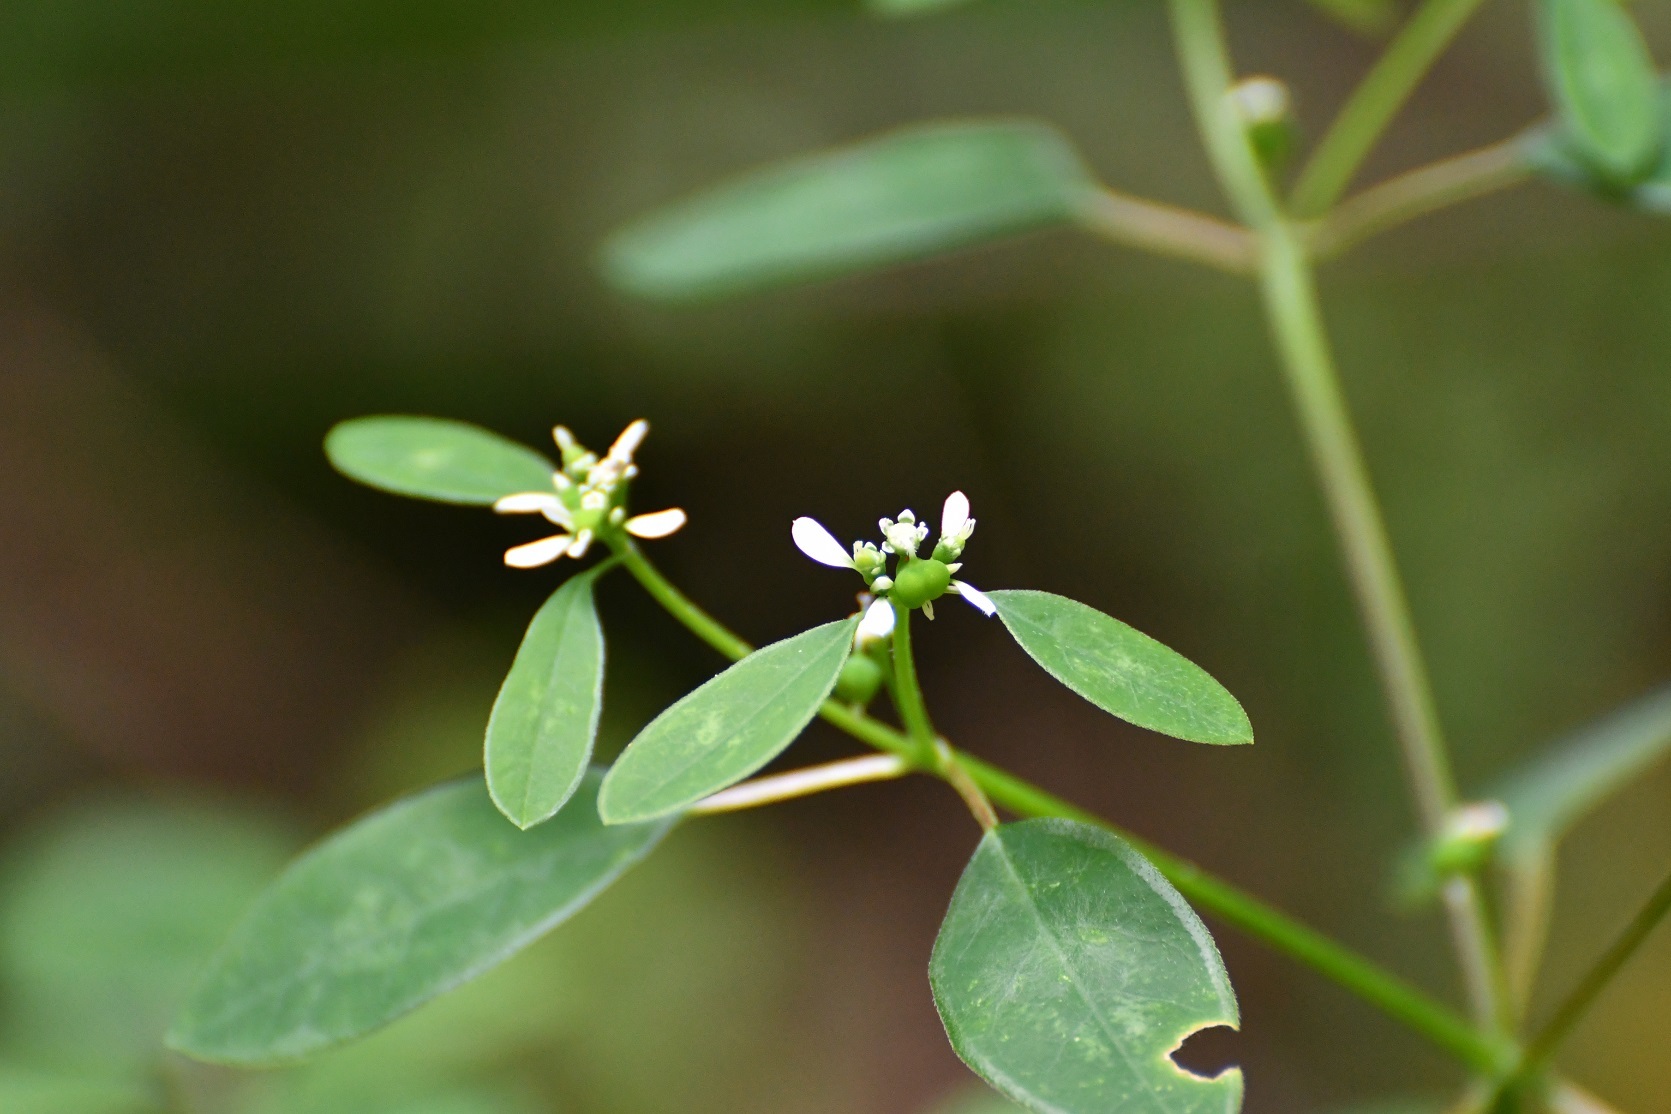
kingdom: Plantae
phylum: Tracheophyta
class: Magnoliopsida
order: Malpighiales
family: Euphorbiaceae
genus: Euphorbia
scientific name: Euphorbia graminea
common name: Grassleaf spurge
